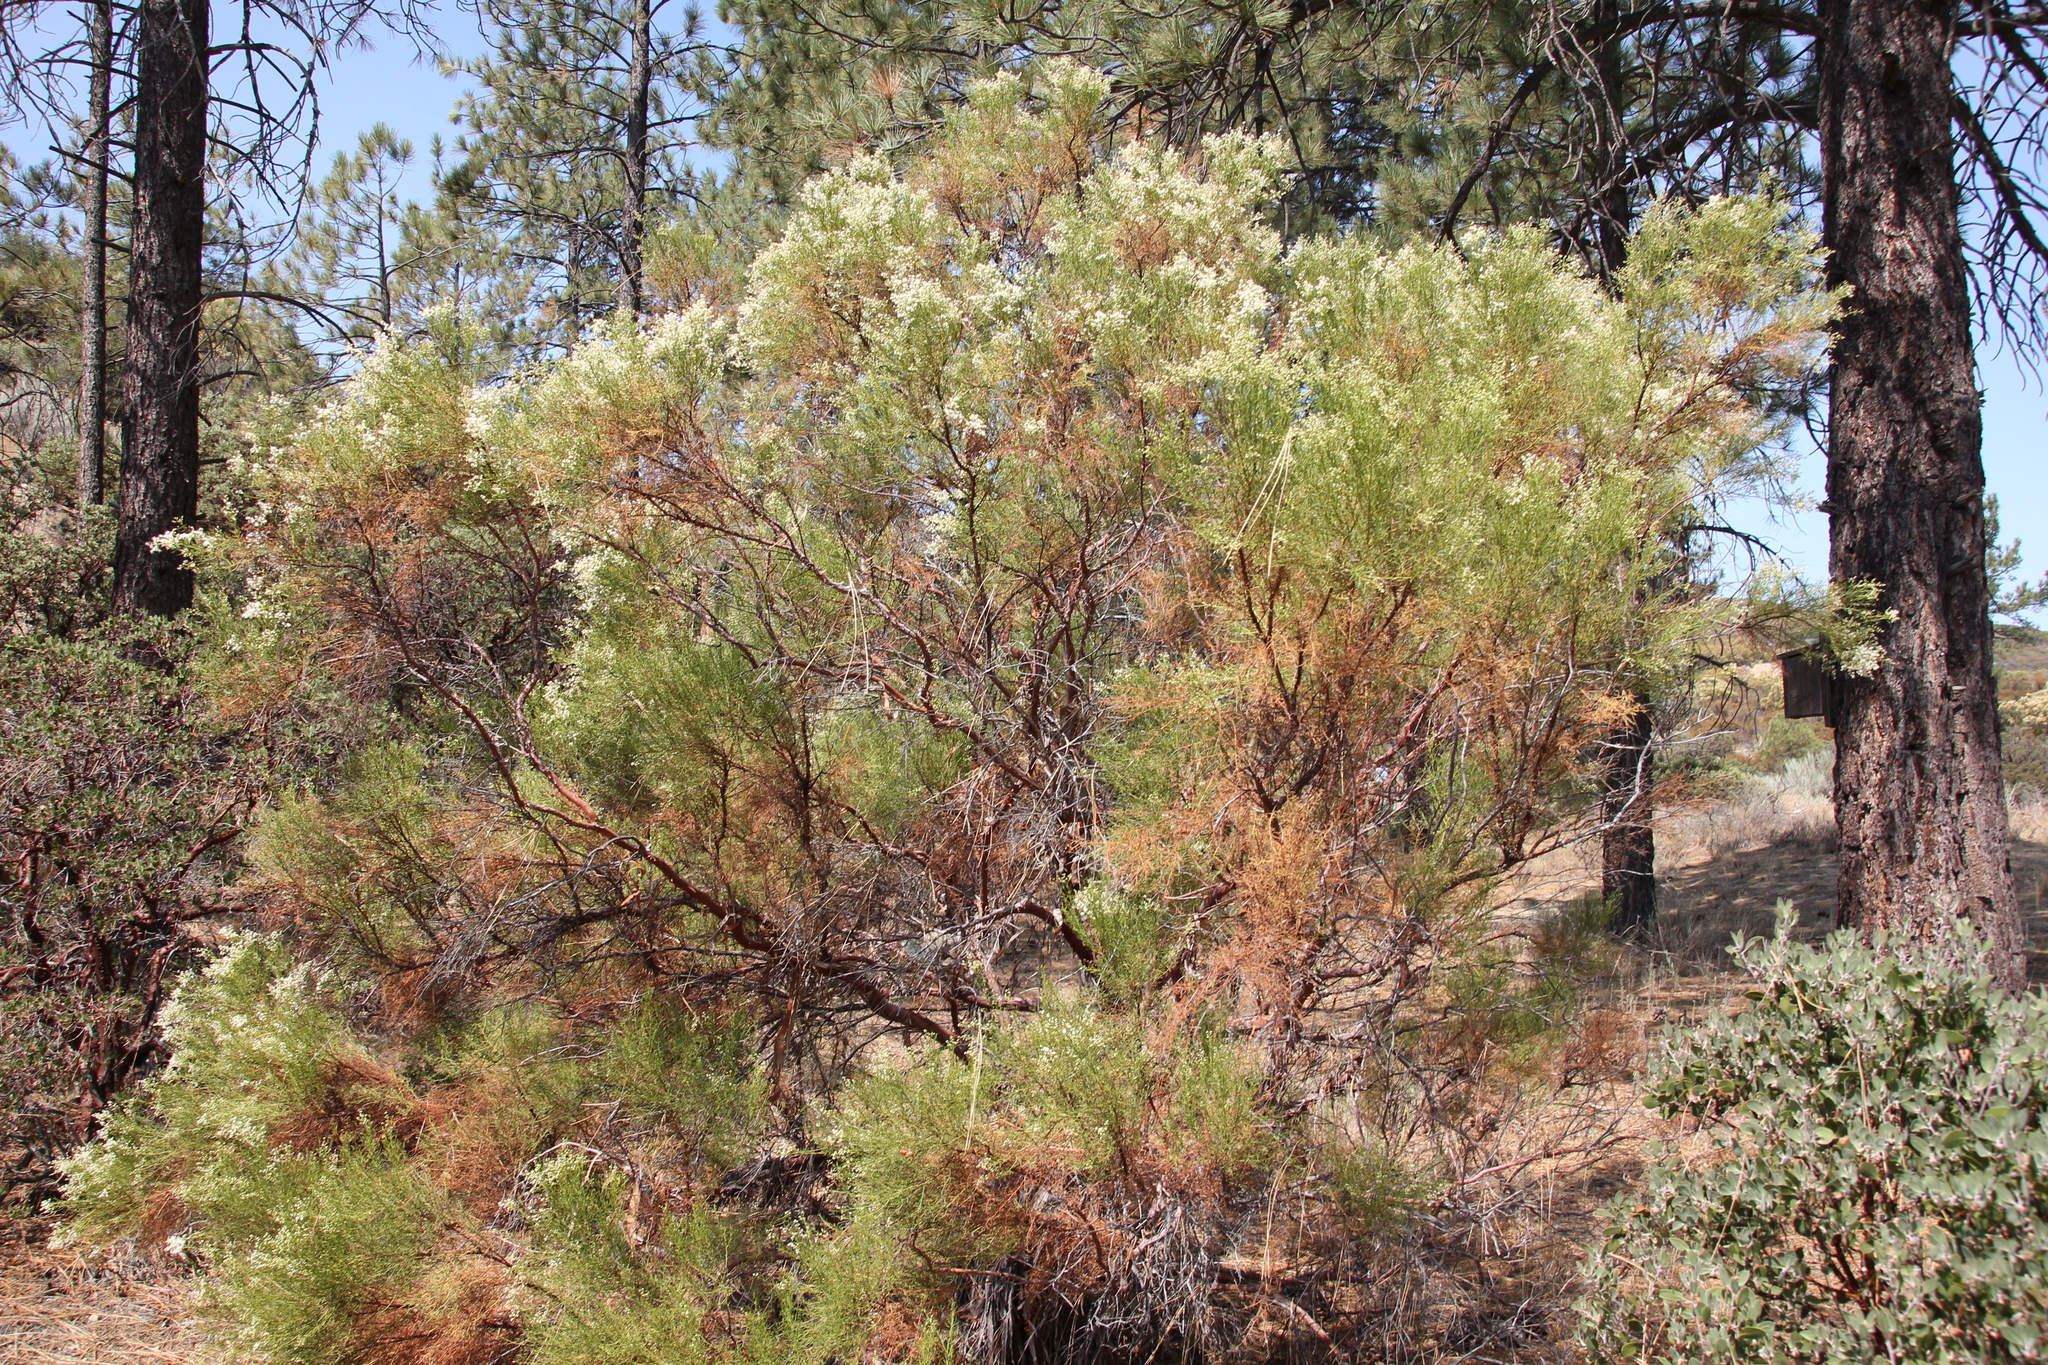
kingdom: Plantae
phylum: Tracheophyta
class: Magnoliopsida
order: Rosales
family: Rosaceae
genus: Adenostoma
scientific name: Adenostoma sparsifolium
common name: Red shank
